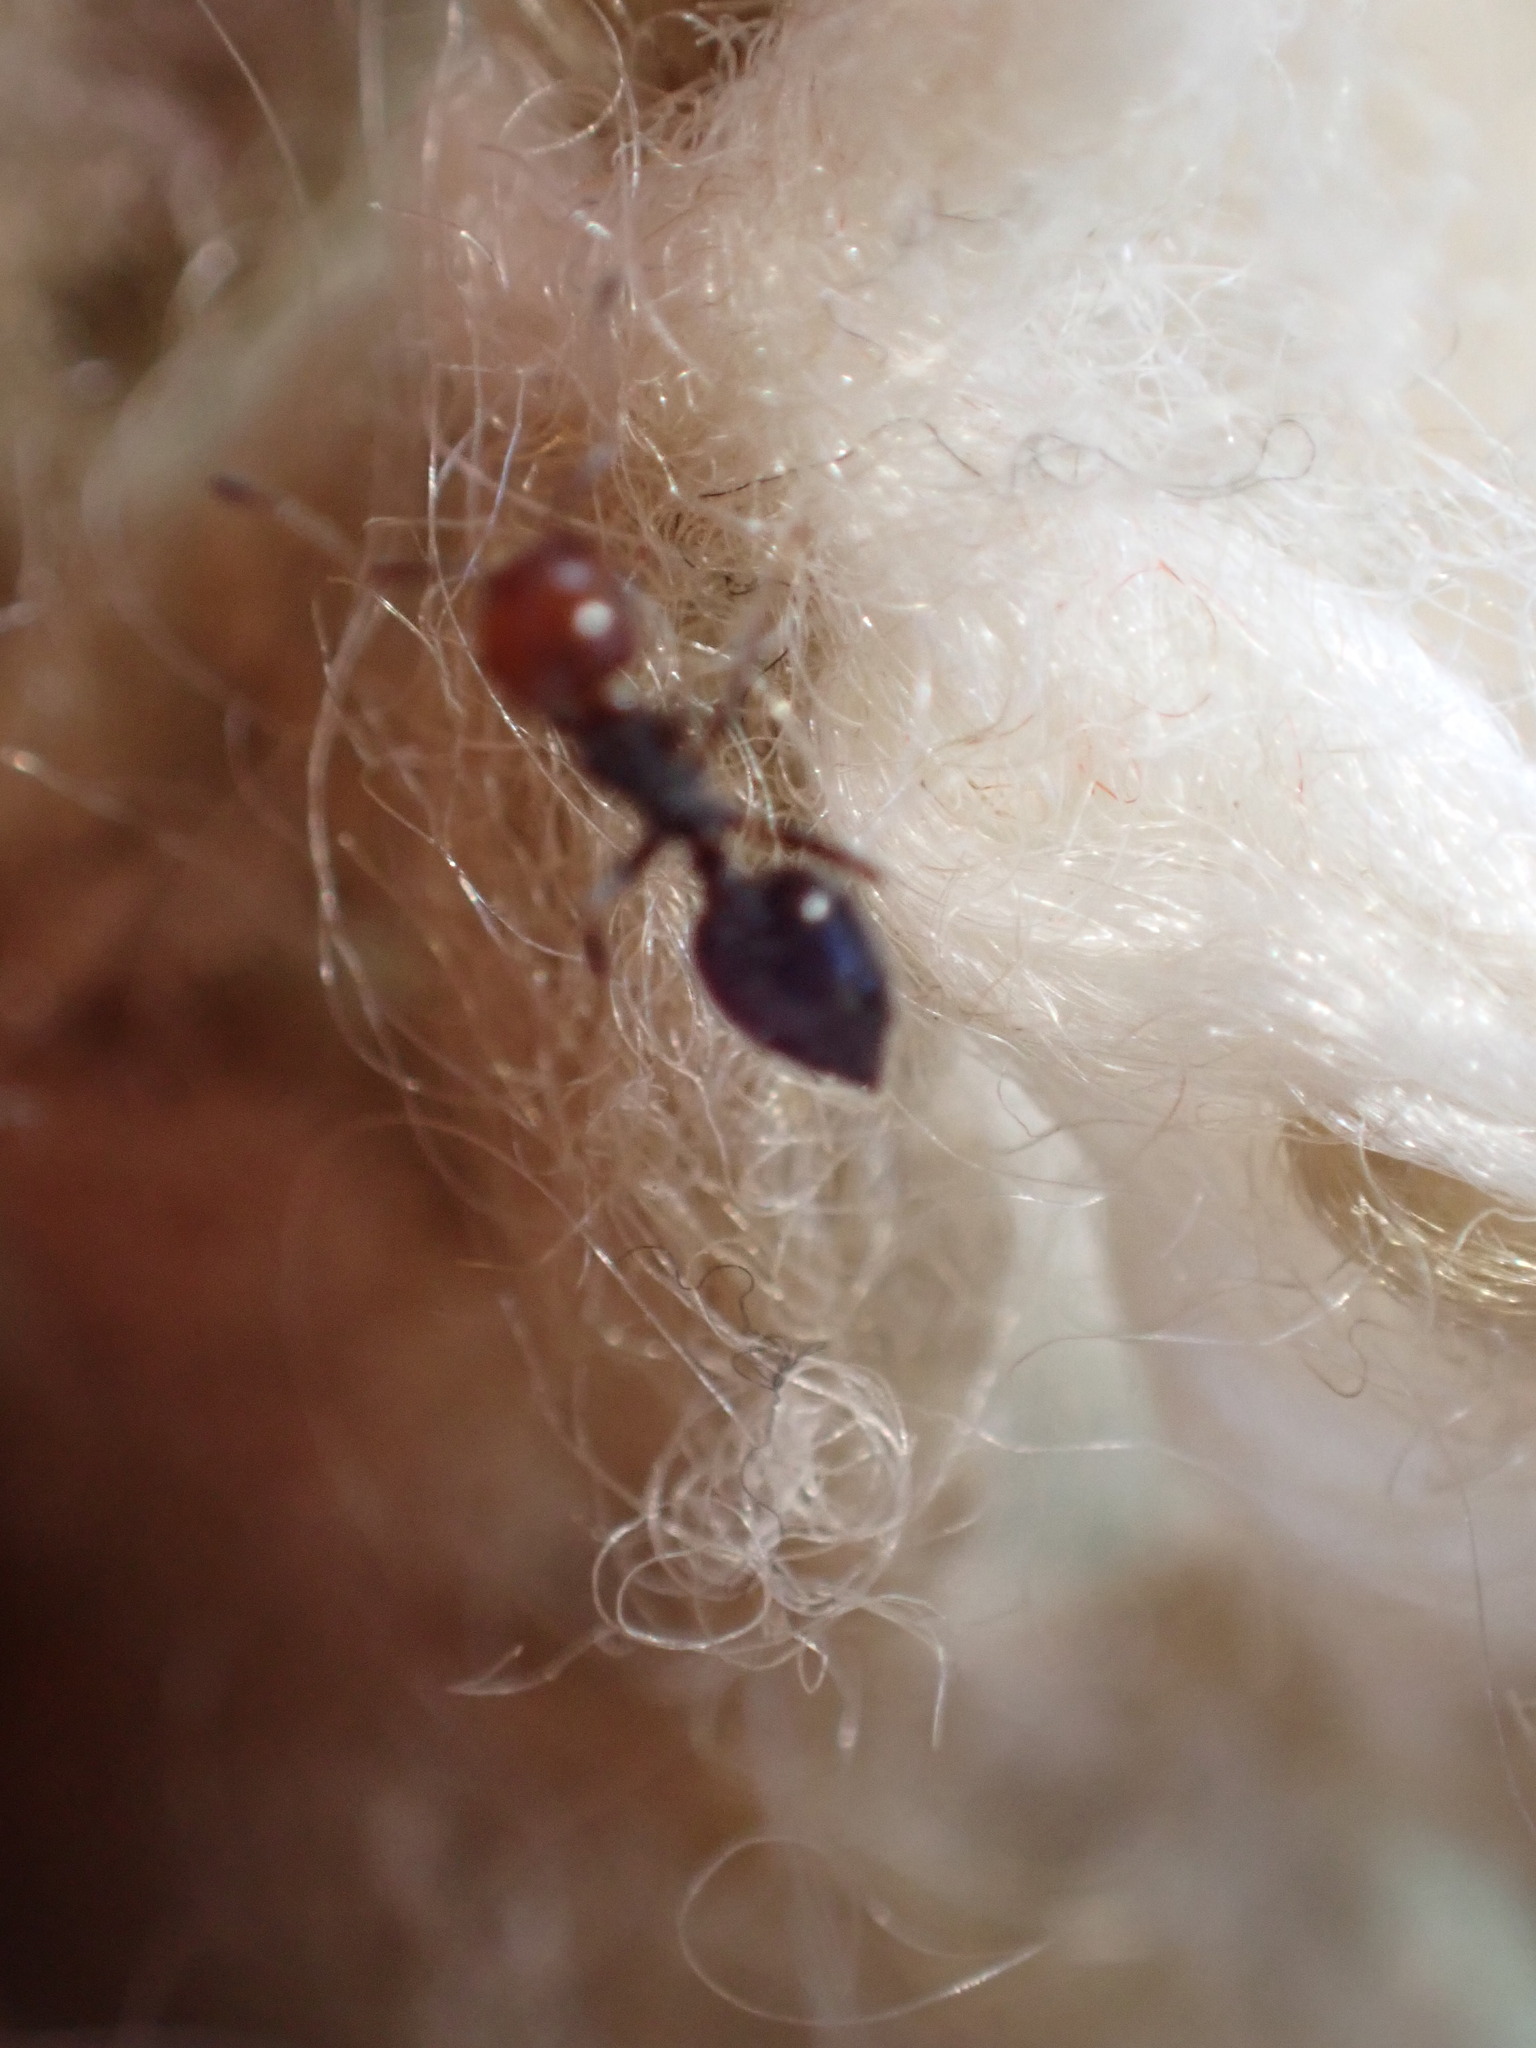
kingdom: Animalia
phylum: Arthropoda
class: Insecta
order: Hymenoptera
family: Formicidae
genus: Crematogaster
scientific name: Crematogaster scutellaris
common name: Fourmi du liège
